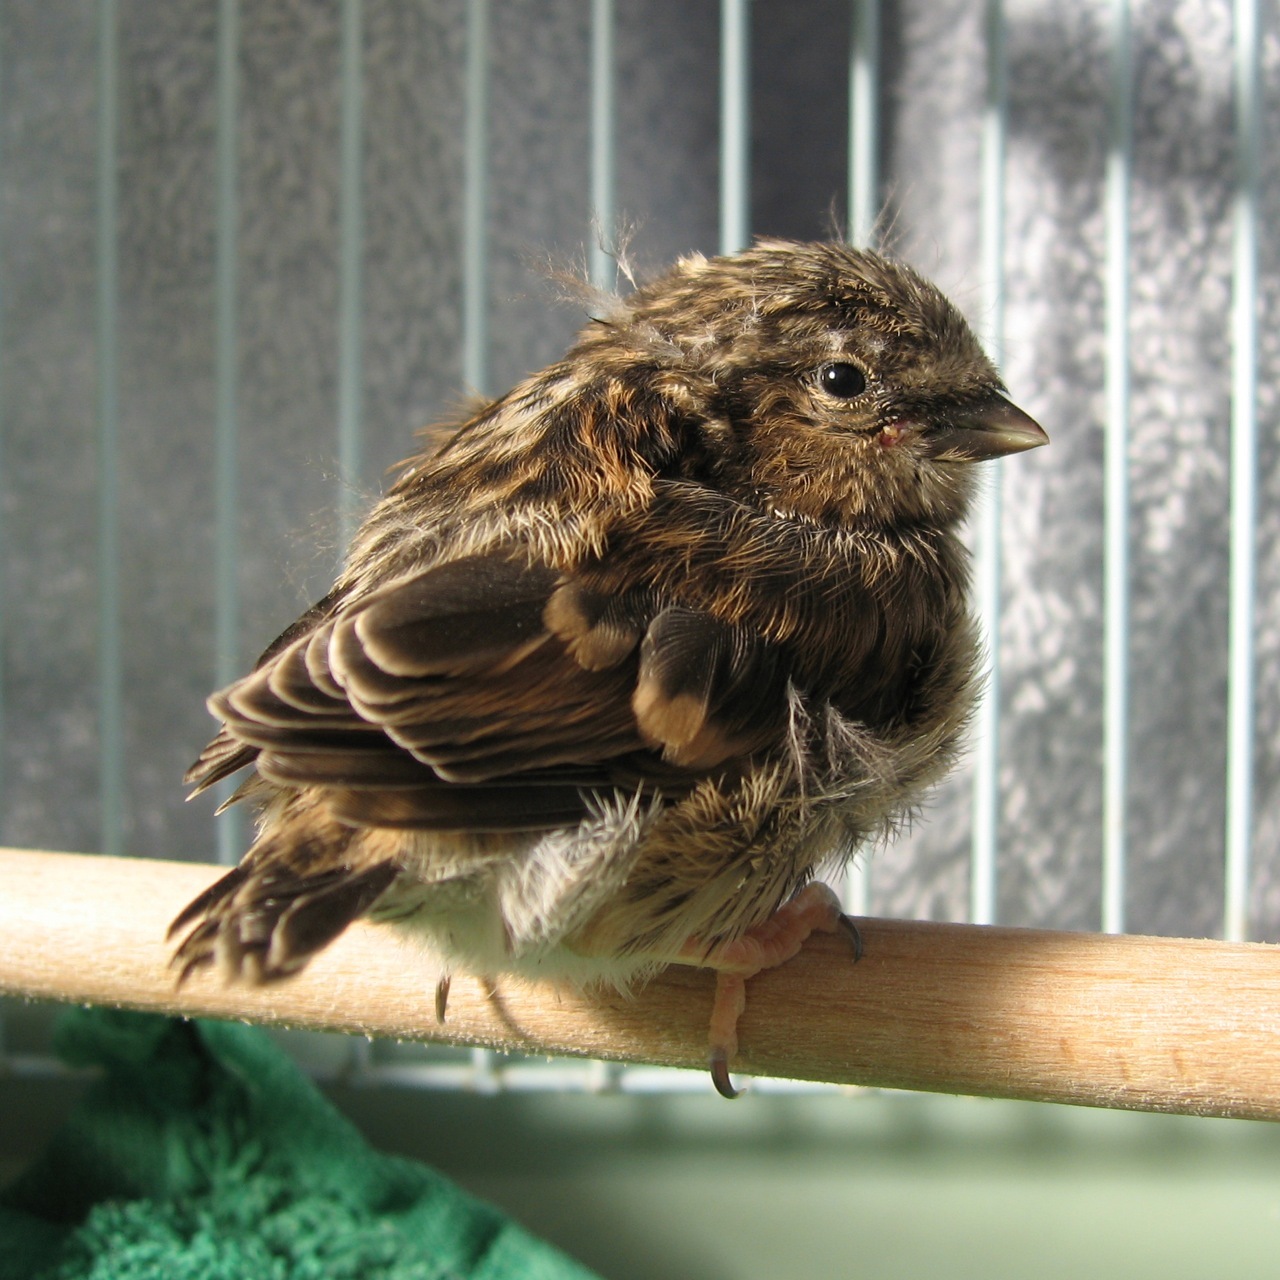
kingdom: Animalia
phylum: Chordata
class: Aves
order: Passeriformes
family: Fringillidae
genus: Acanthis
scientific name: Acanthis flammea
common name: Common redpoll
